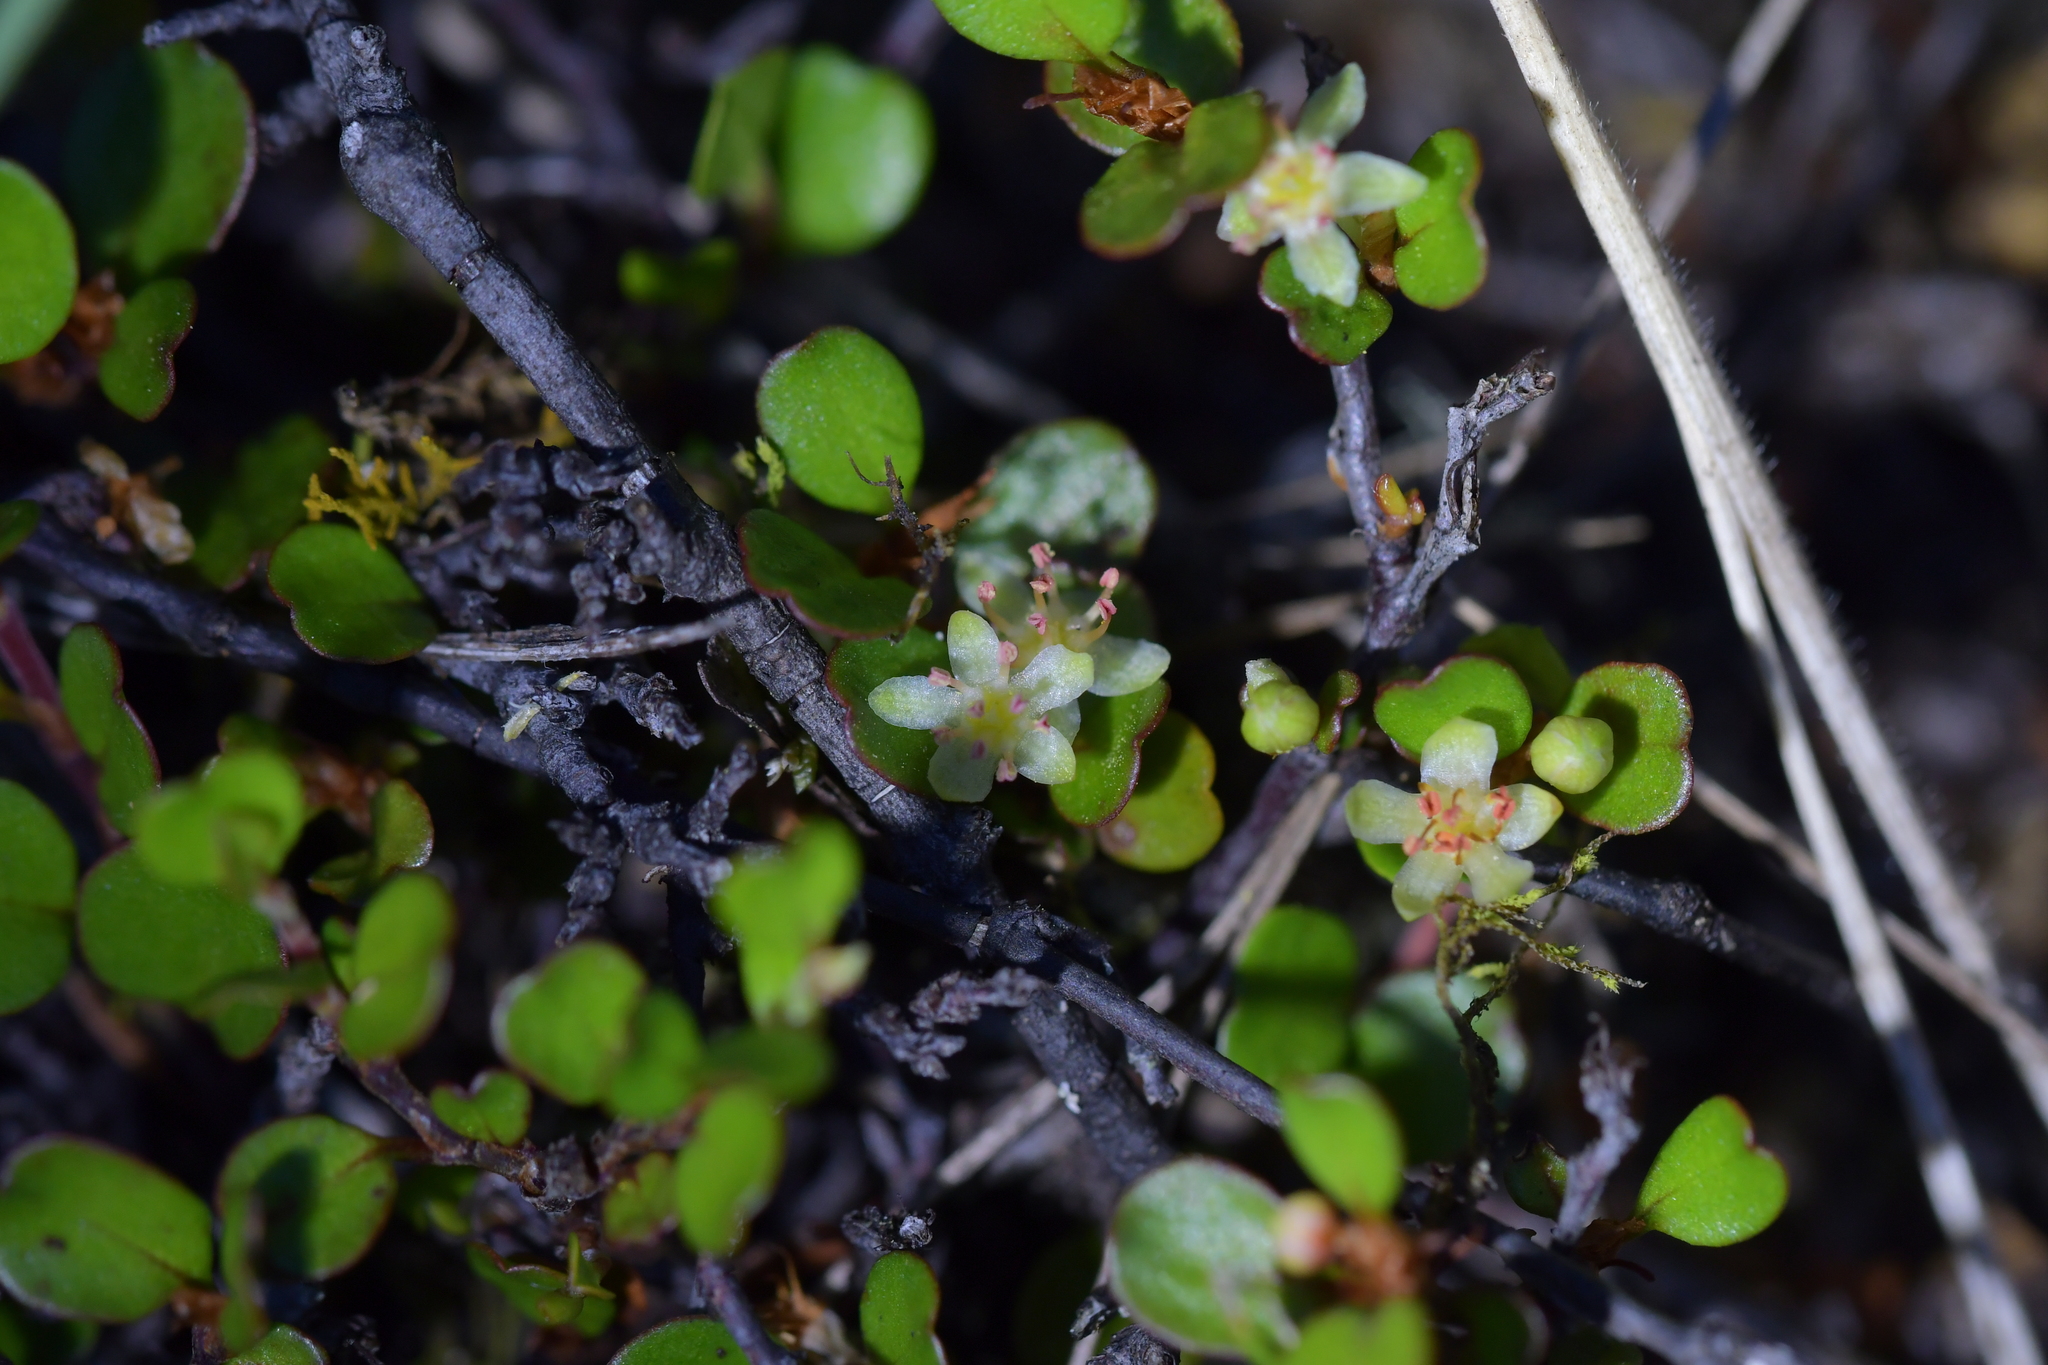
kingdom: Plantae
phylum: Tracheophyta
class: Magnoliopsida
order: Caryophyllales
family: Polygonaceae
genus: Muehlenbeckia
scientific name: Muehlenbeckia axillaris
